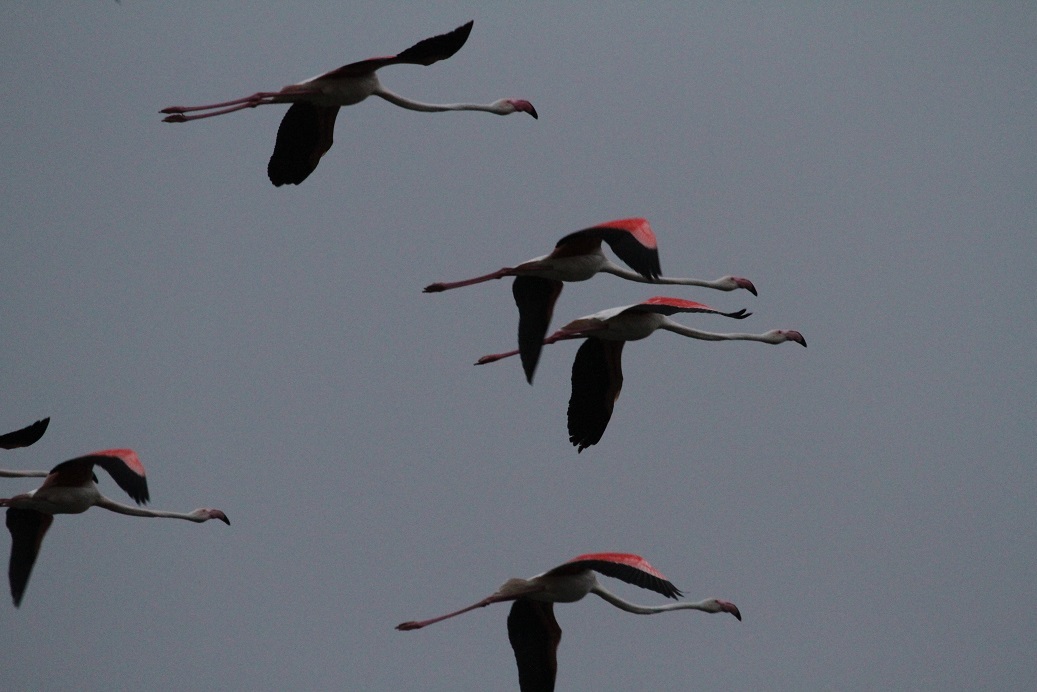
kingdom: Animalia
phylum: Chordata
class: Aves
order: Phoenicopteriformes
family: Phoenicopteridae
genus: Phoenicopterus
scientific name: Phoenicopterus roseus
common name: Greater flamingo
